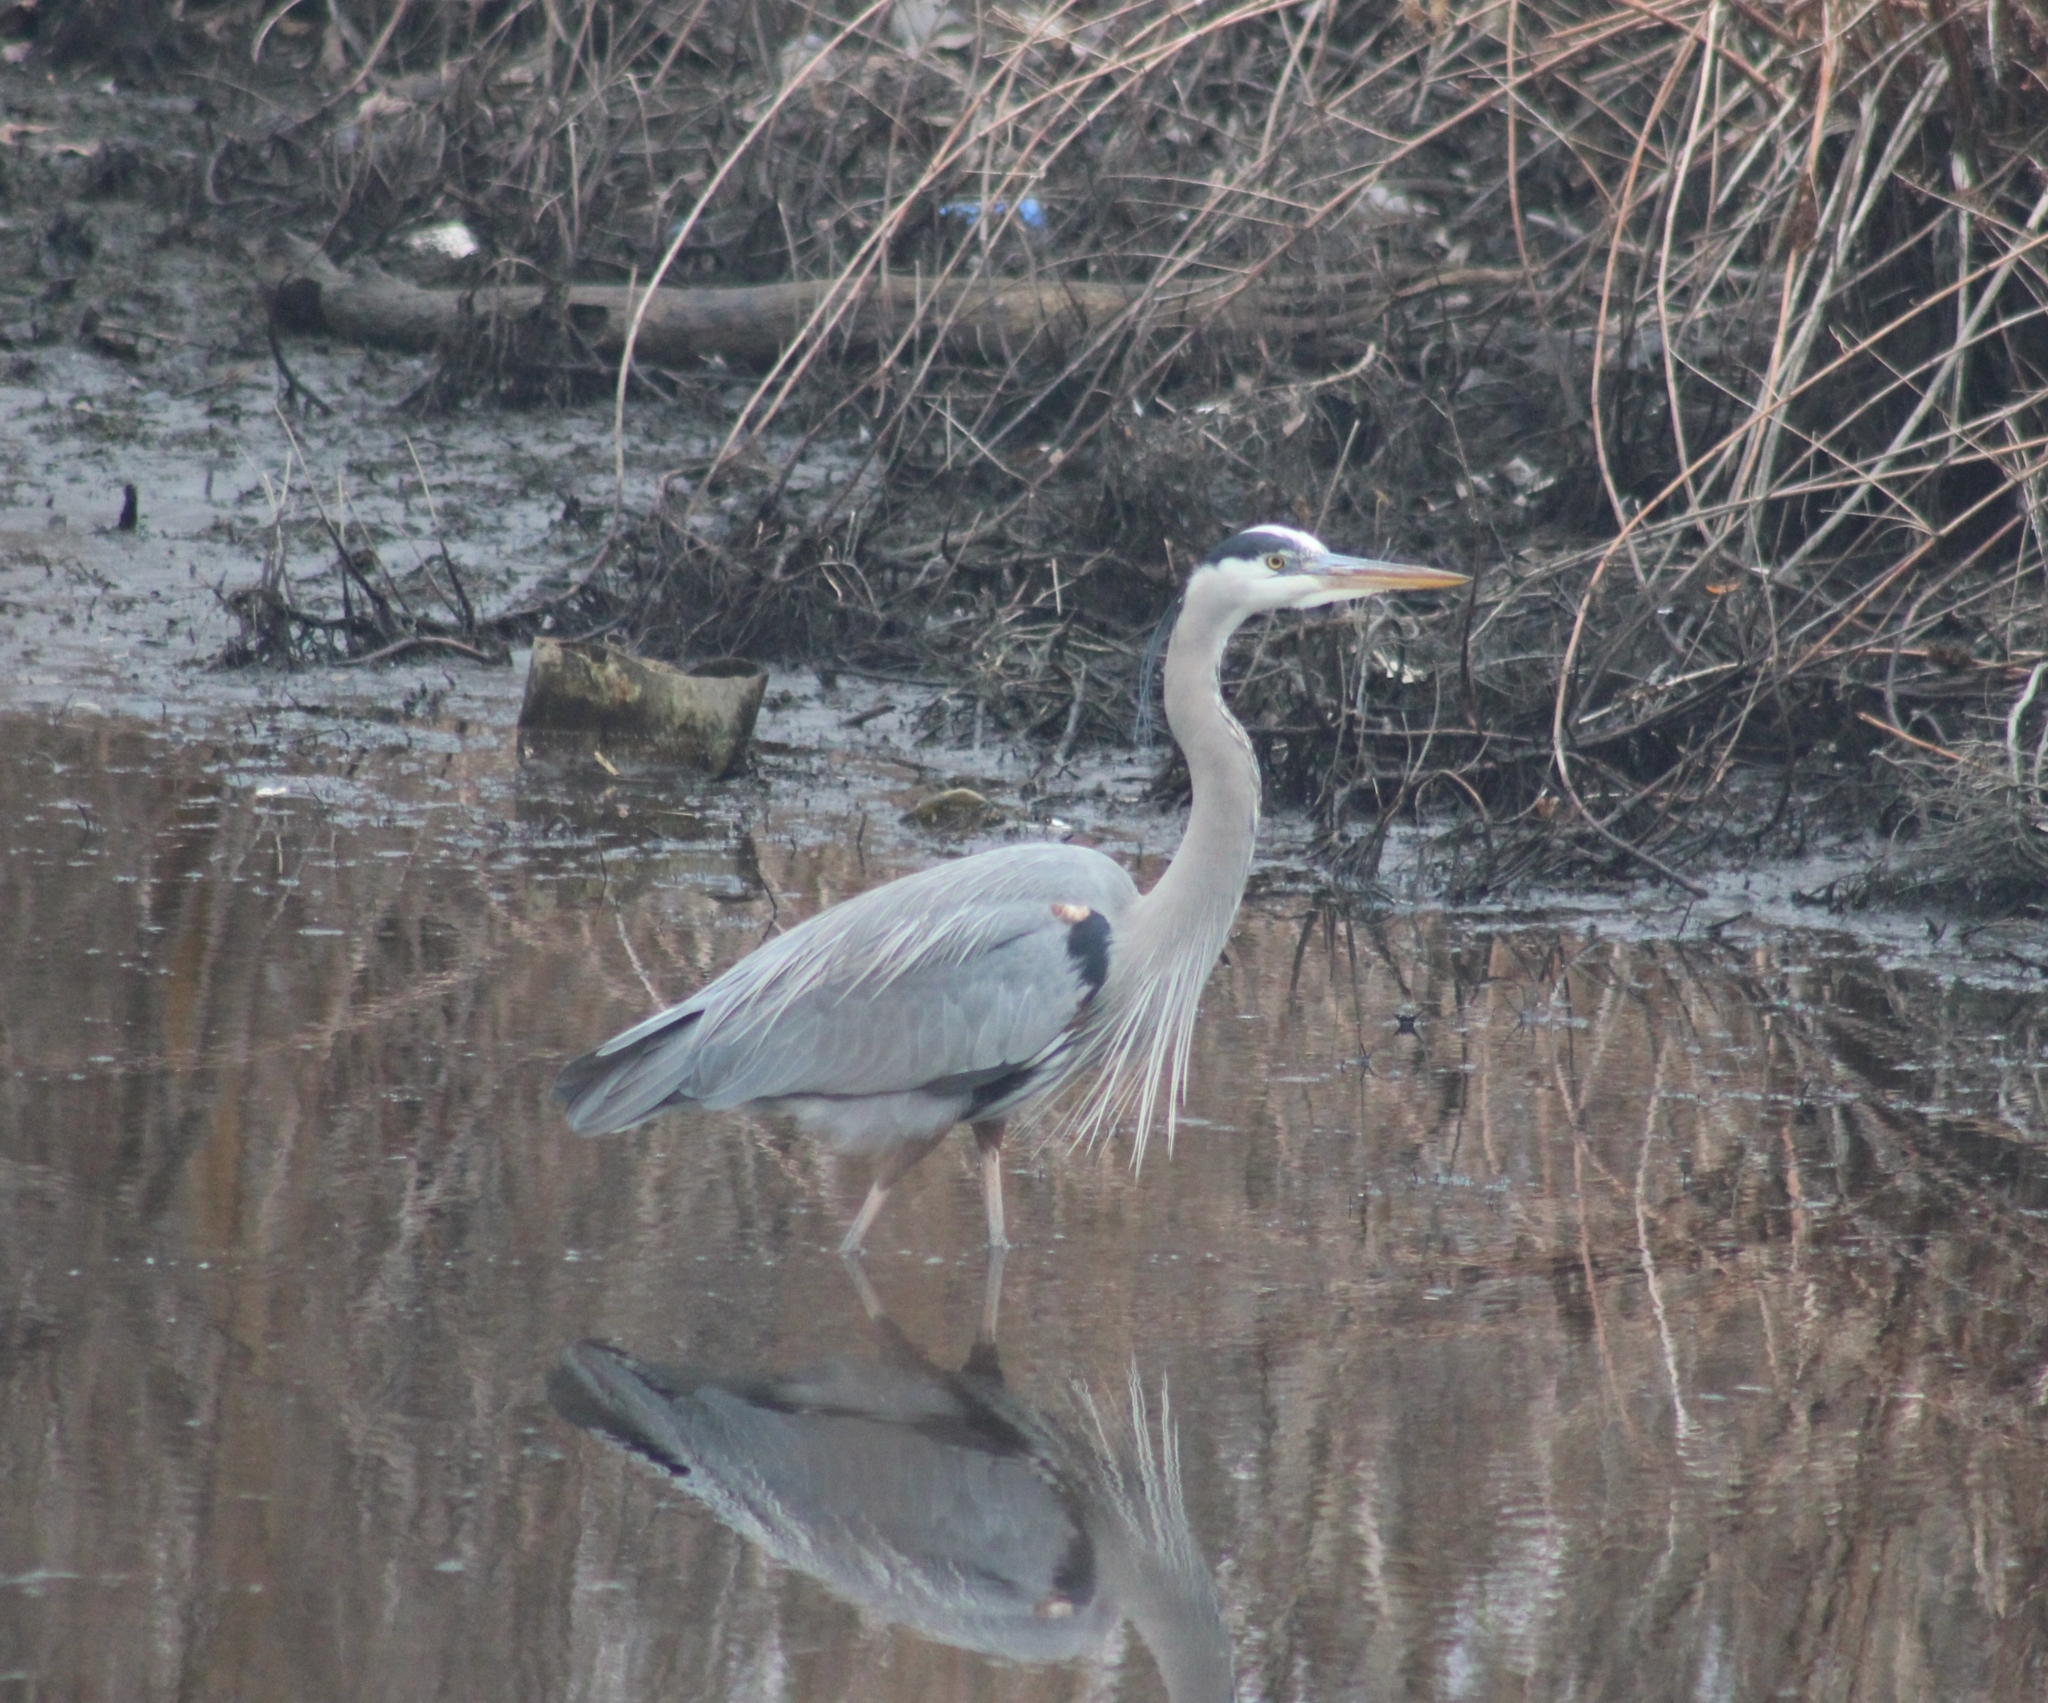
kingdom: Animalia
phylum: Chordata
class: Aves
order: Pelecaniformes
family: Ardeidae
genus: Ardea
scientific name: Ardea herodias
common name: Great blue heron
